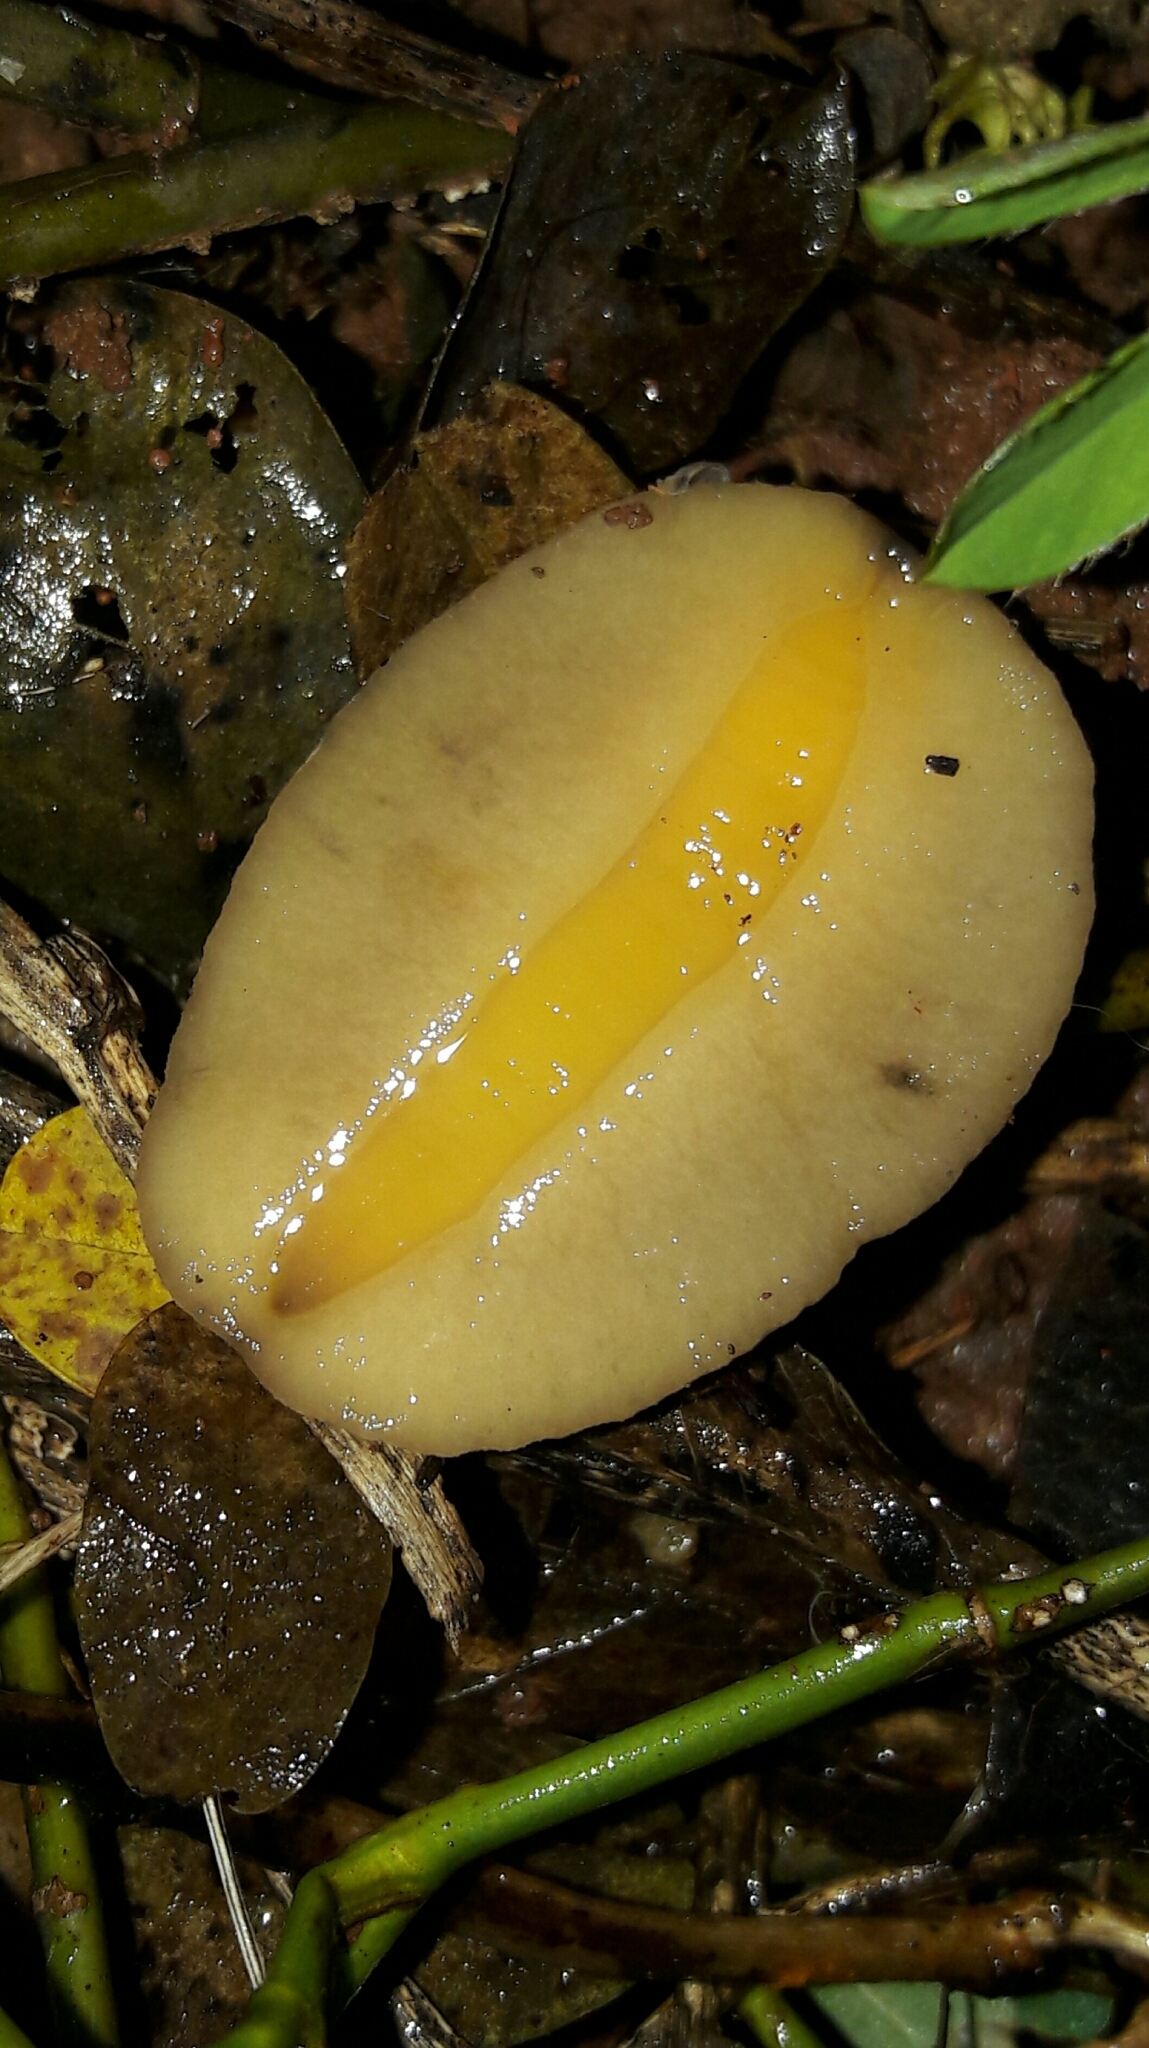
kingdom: Animalia
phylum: Mollusca
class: Gastropoda
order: Systellommatophora
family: Veronicellidae
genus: Sarasinula
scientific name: Sarasinula linguaeformis
